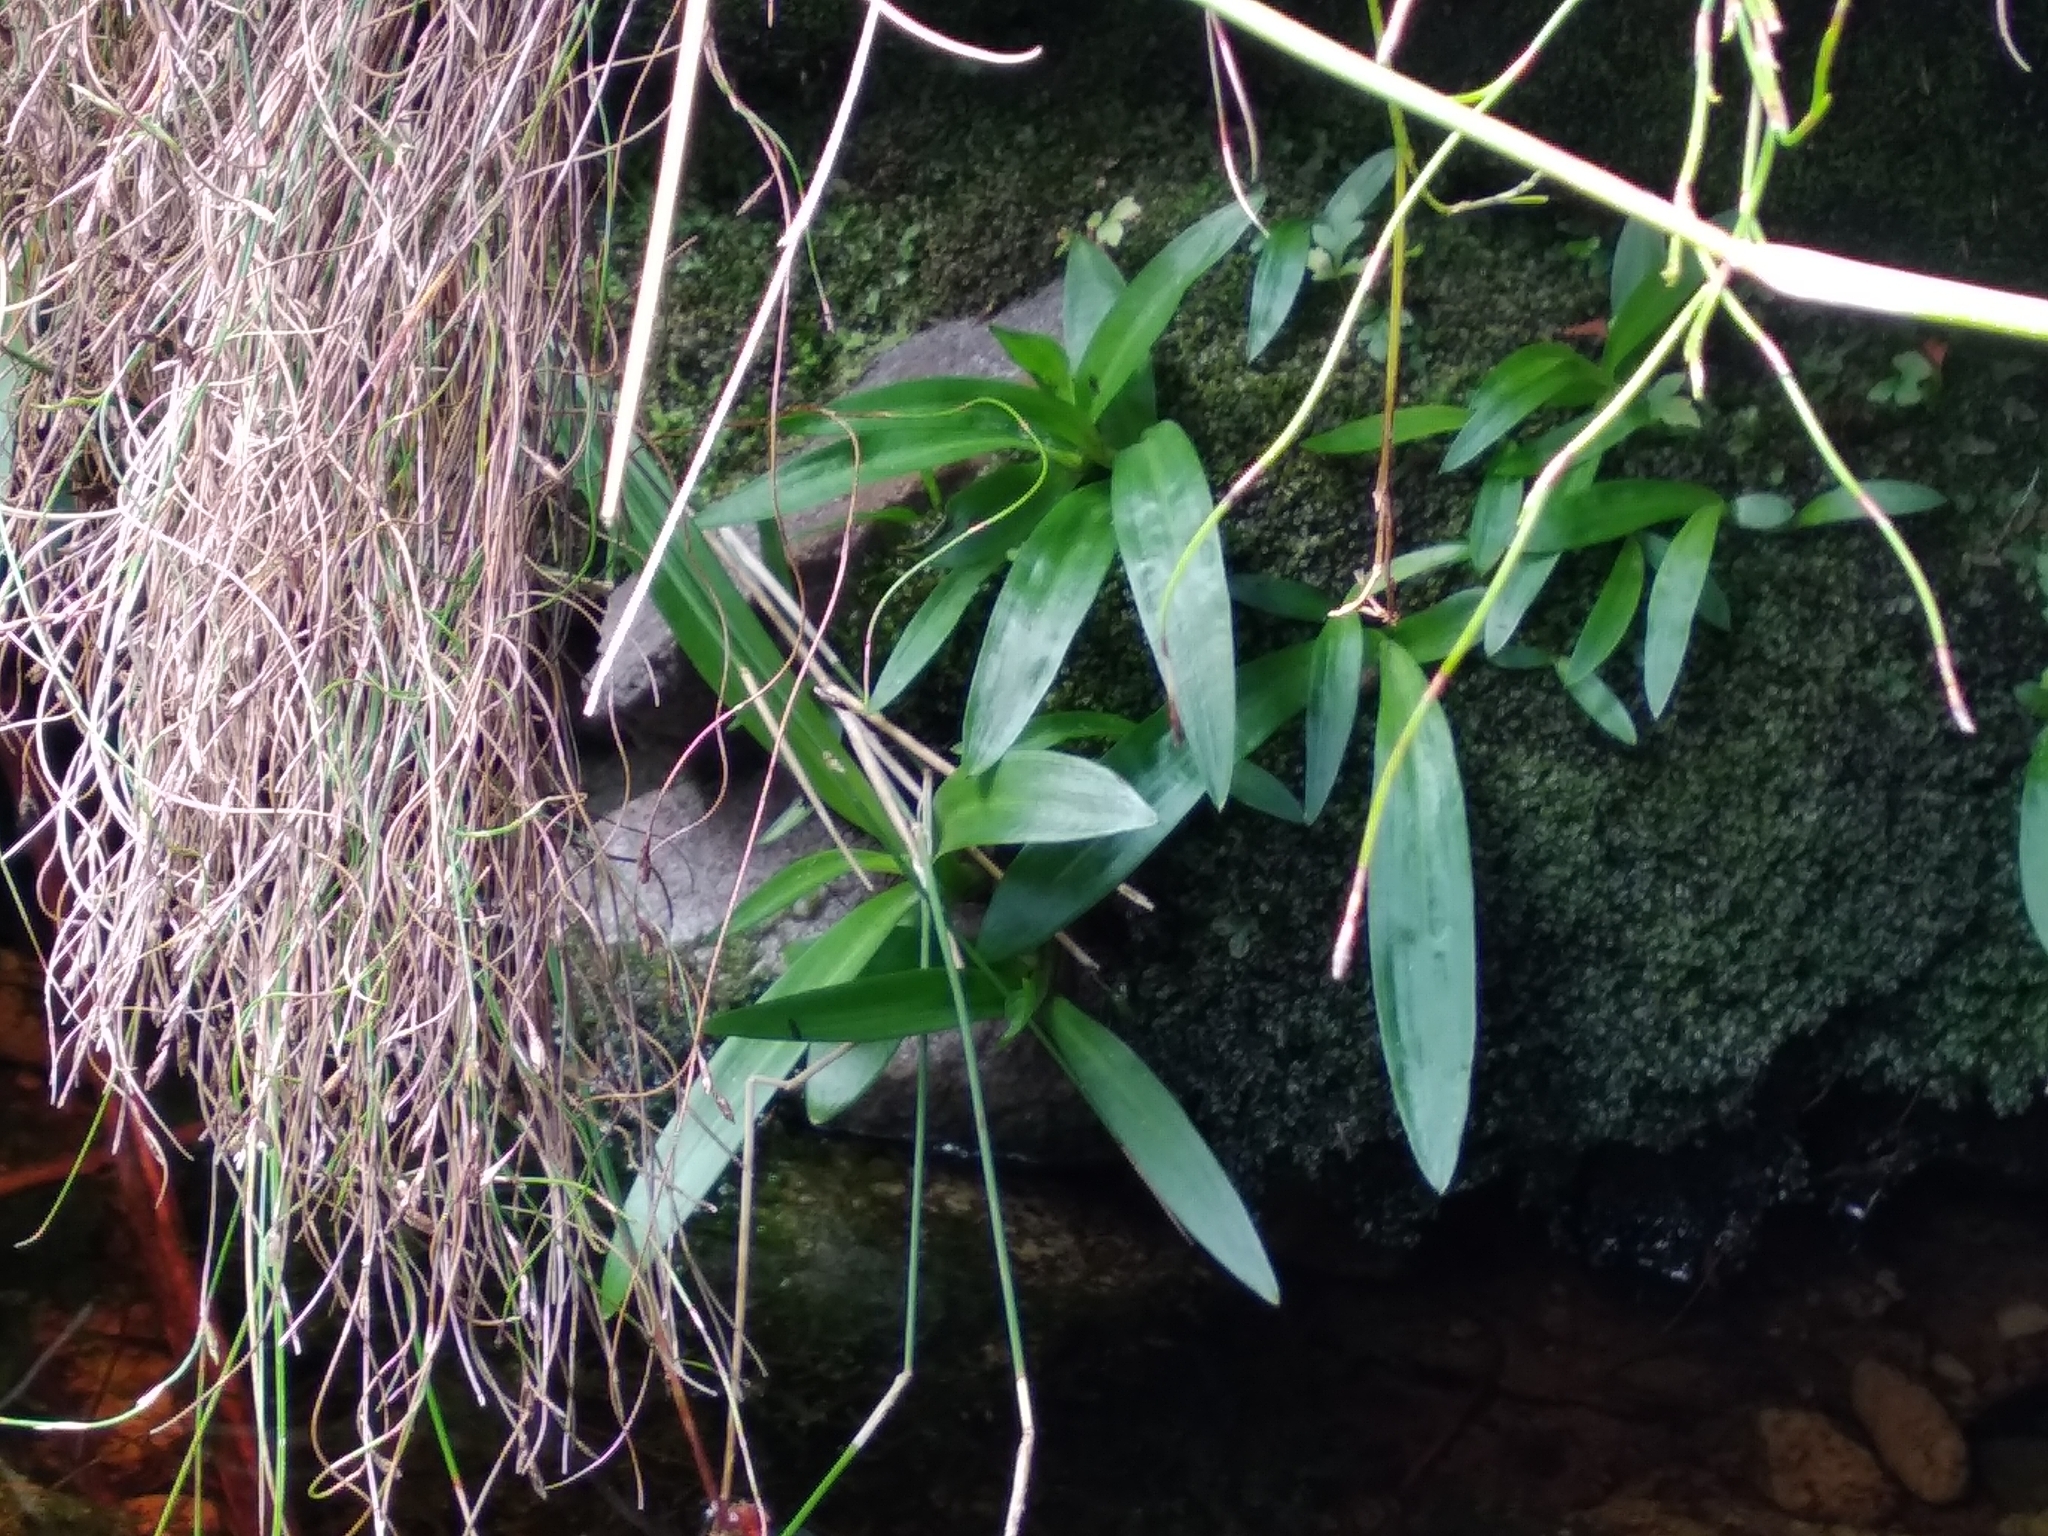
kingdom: Plantae
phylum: Tracheophyta
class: Liliopsida
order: Asparagales
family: Orchidaceae
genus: Disa
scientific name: Disa uniflora
